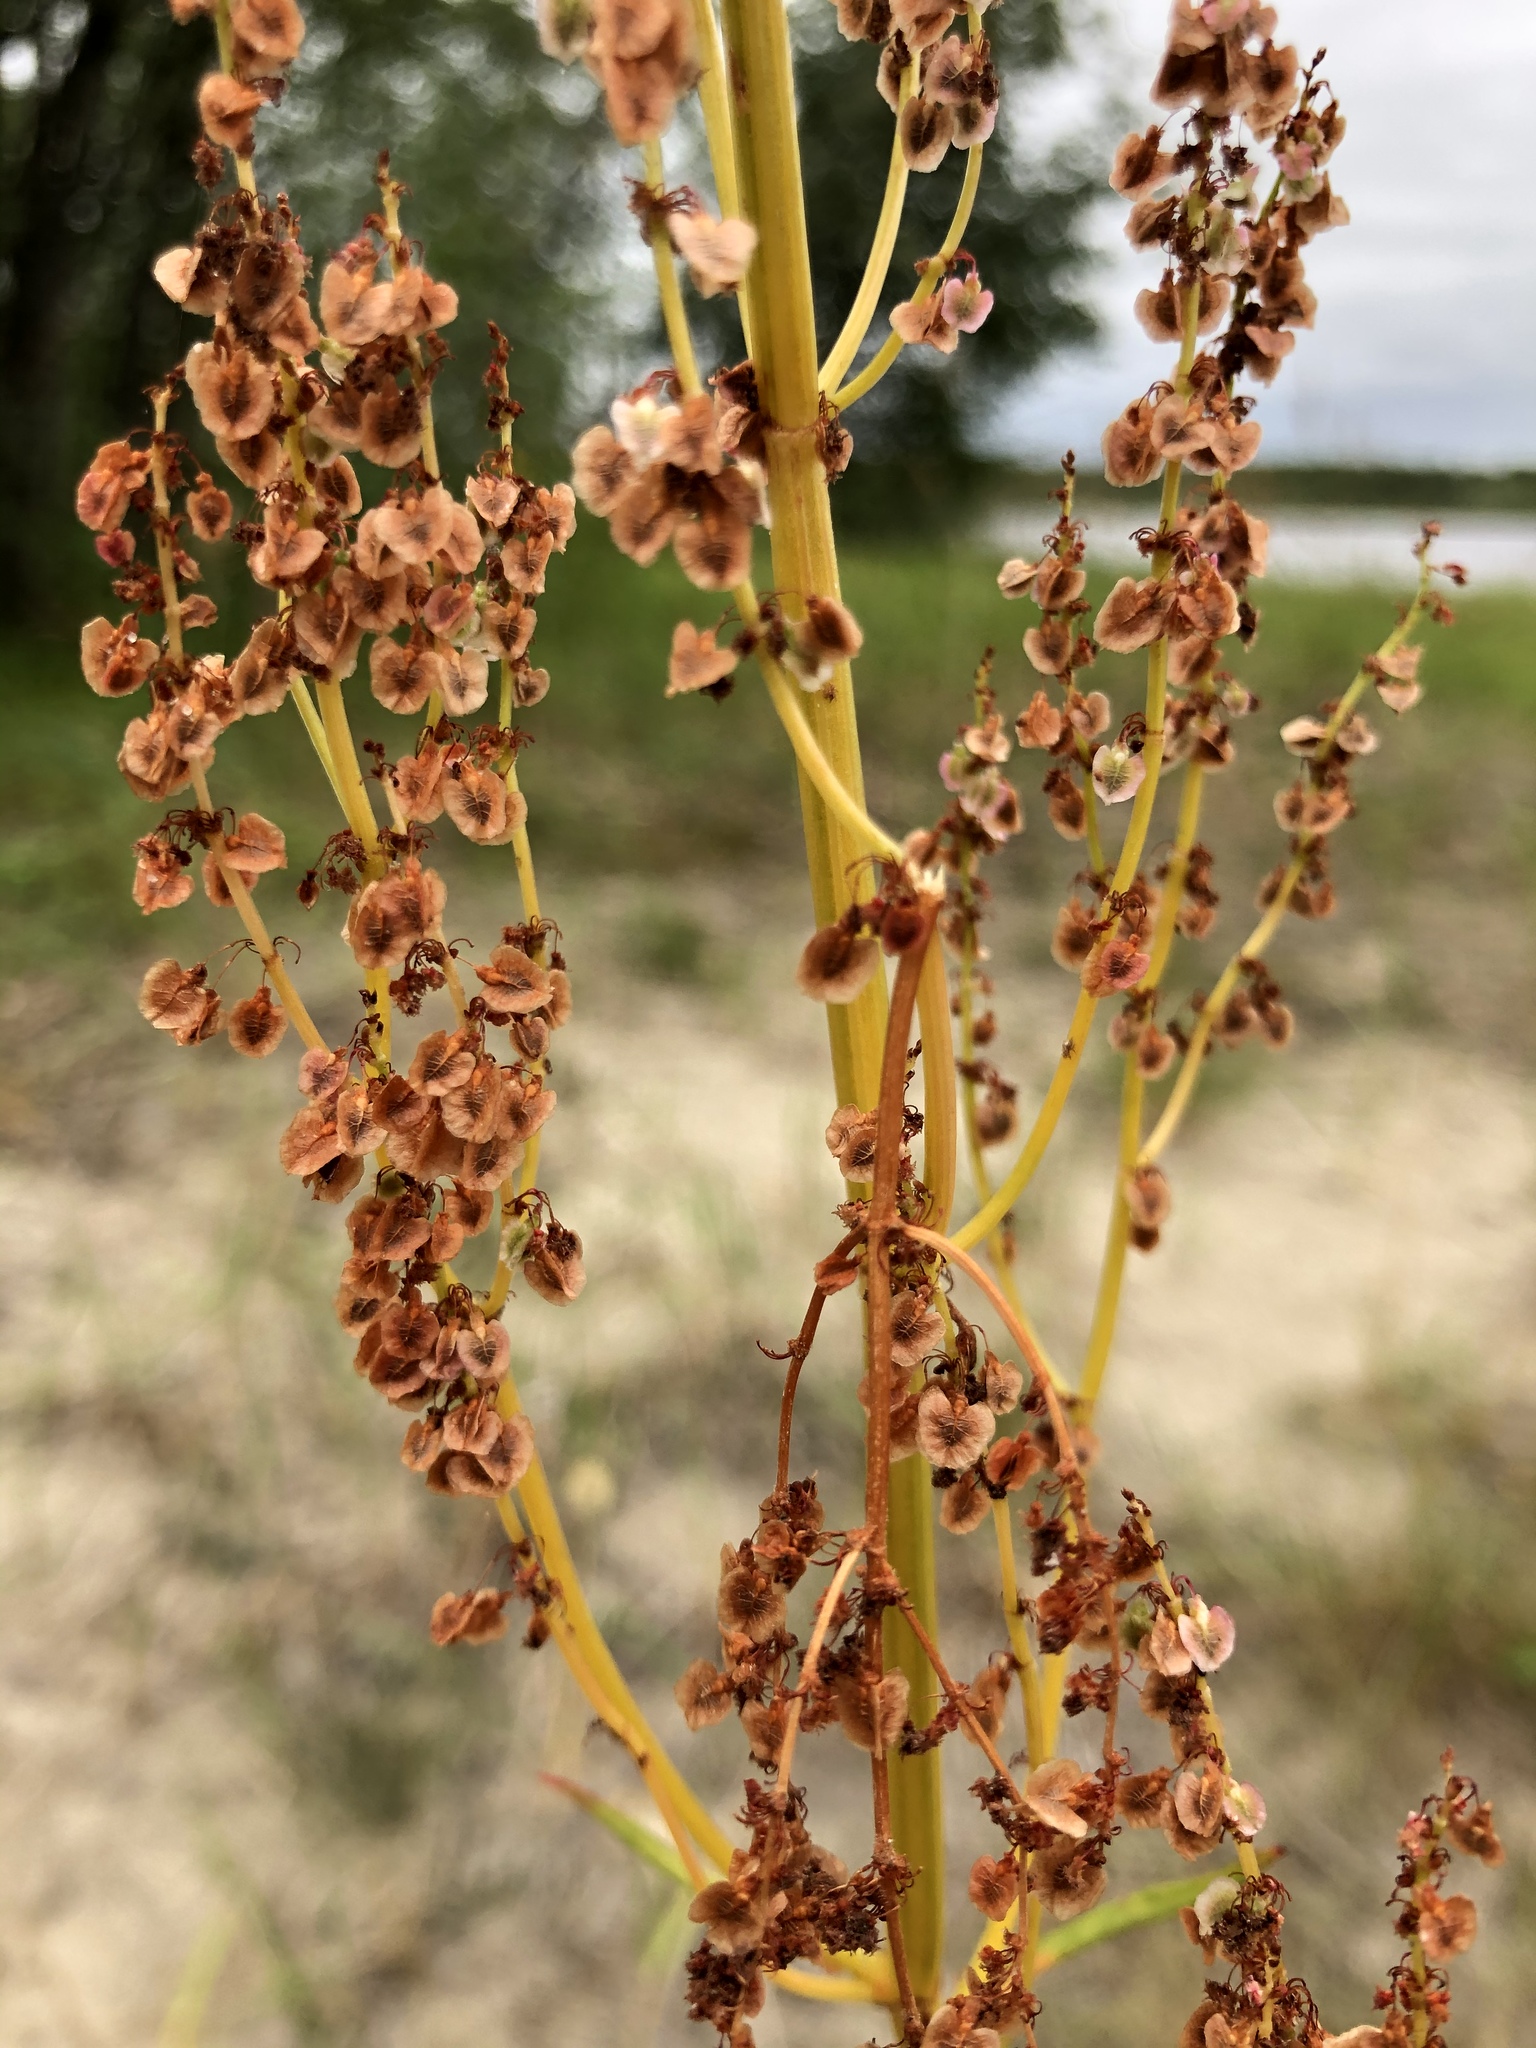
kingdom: Plantae
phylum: Tracheophyta
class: Magnoliopsida
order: Caryophyllales
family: Polygonaceae
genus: Rumex
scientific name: Rumex thyrsiflorus
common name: Garden sorrel
